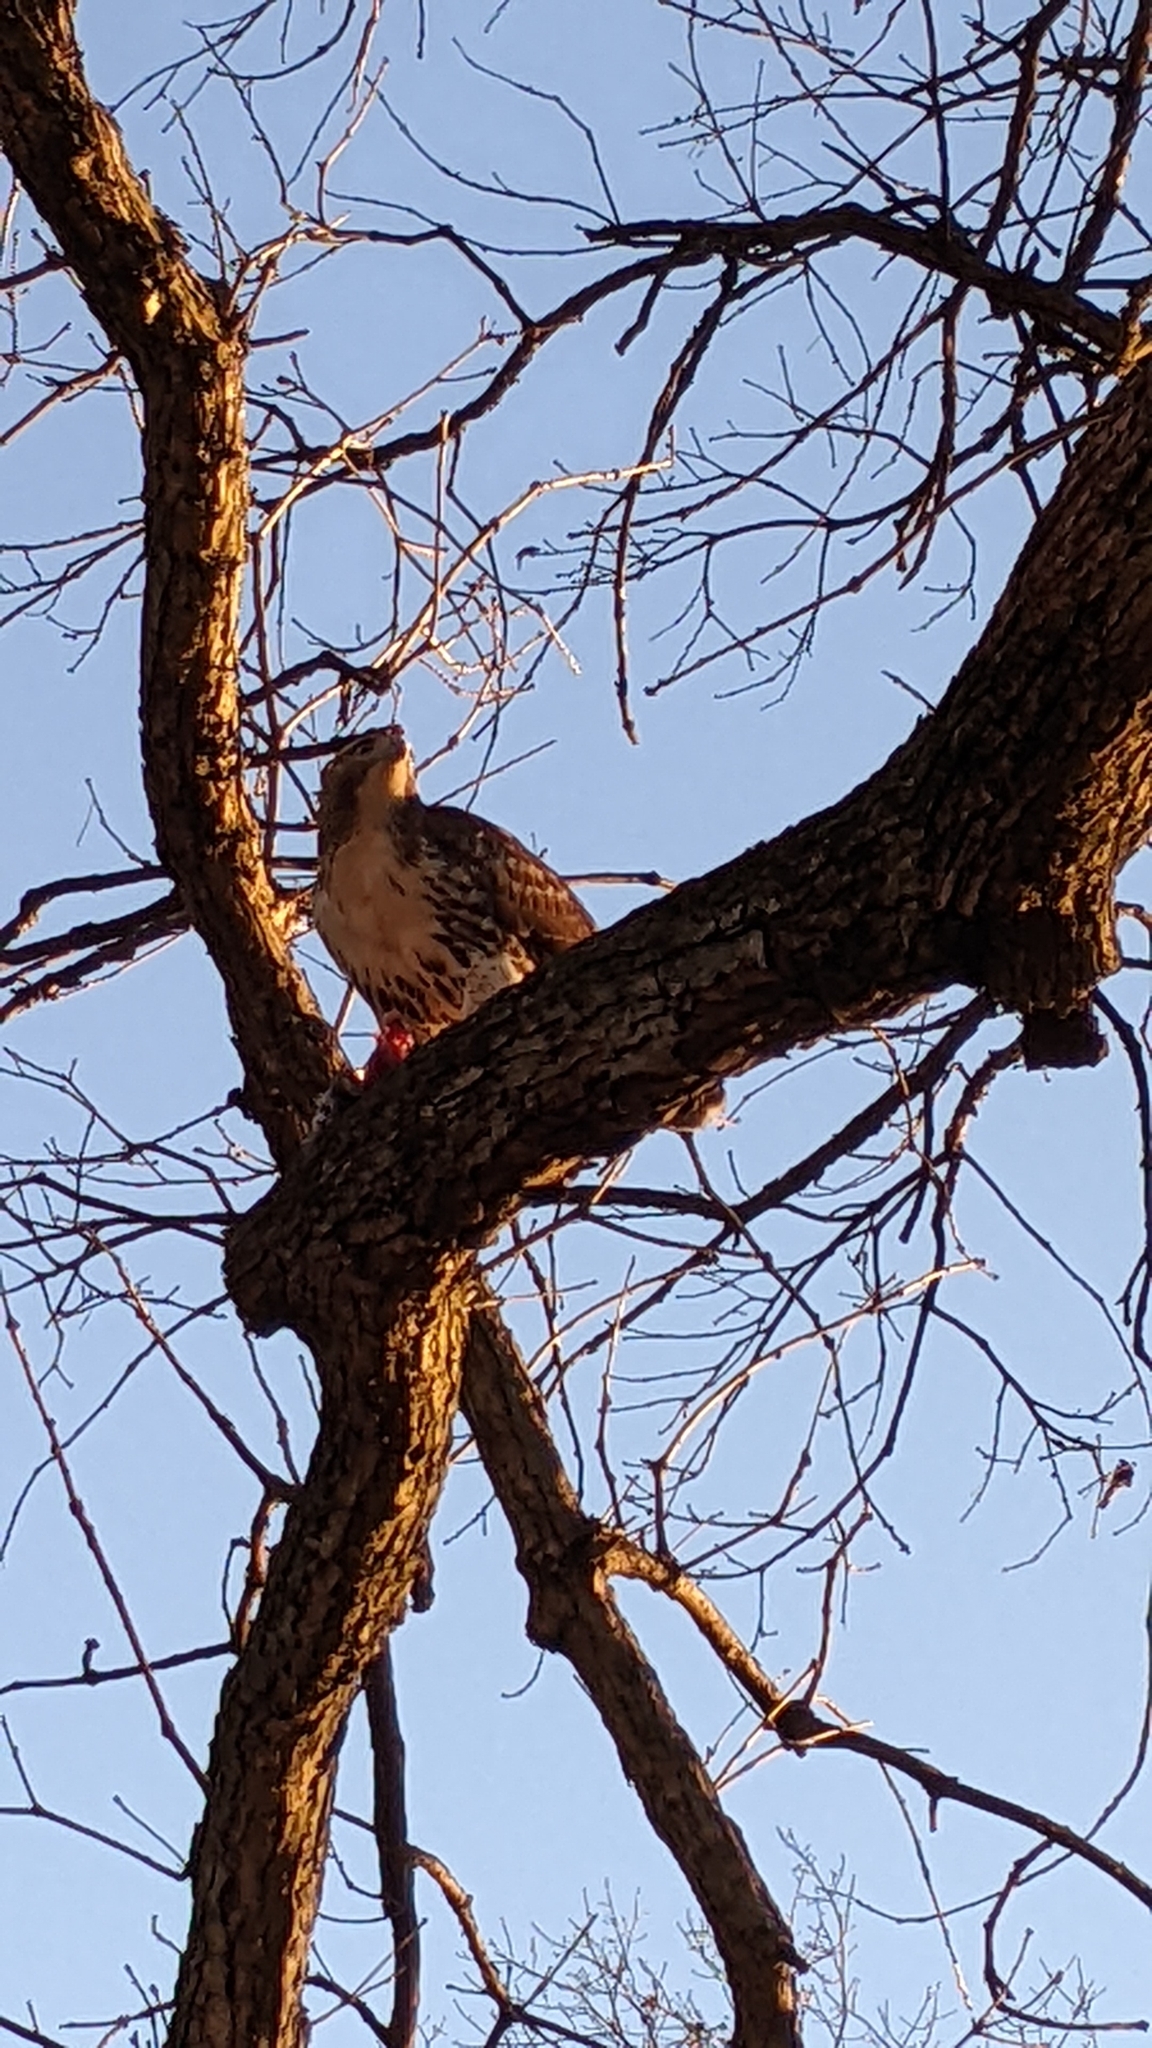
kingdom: Animalia
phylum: Chordata
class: Aves
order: Accipitriformes
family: Accipitridae
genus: Buteo
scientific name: Buteo jamaicensis
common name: Red-tailed hawk
